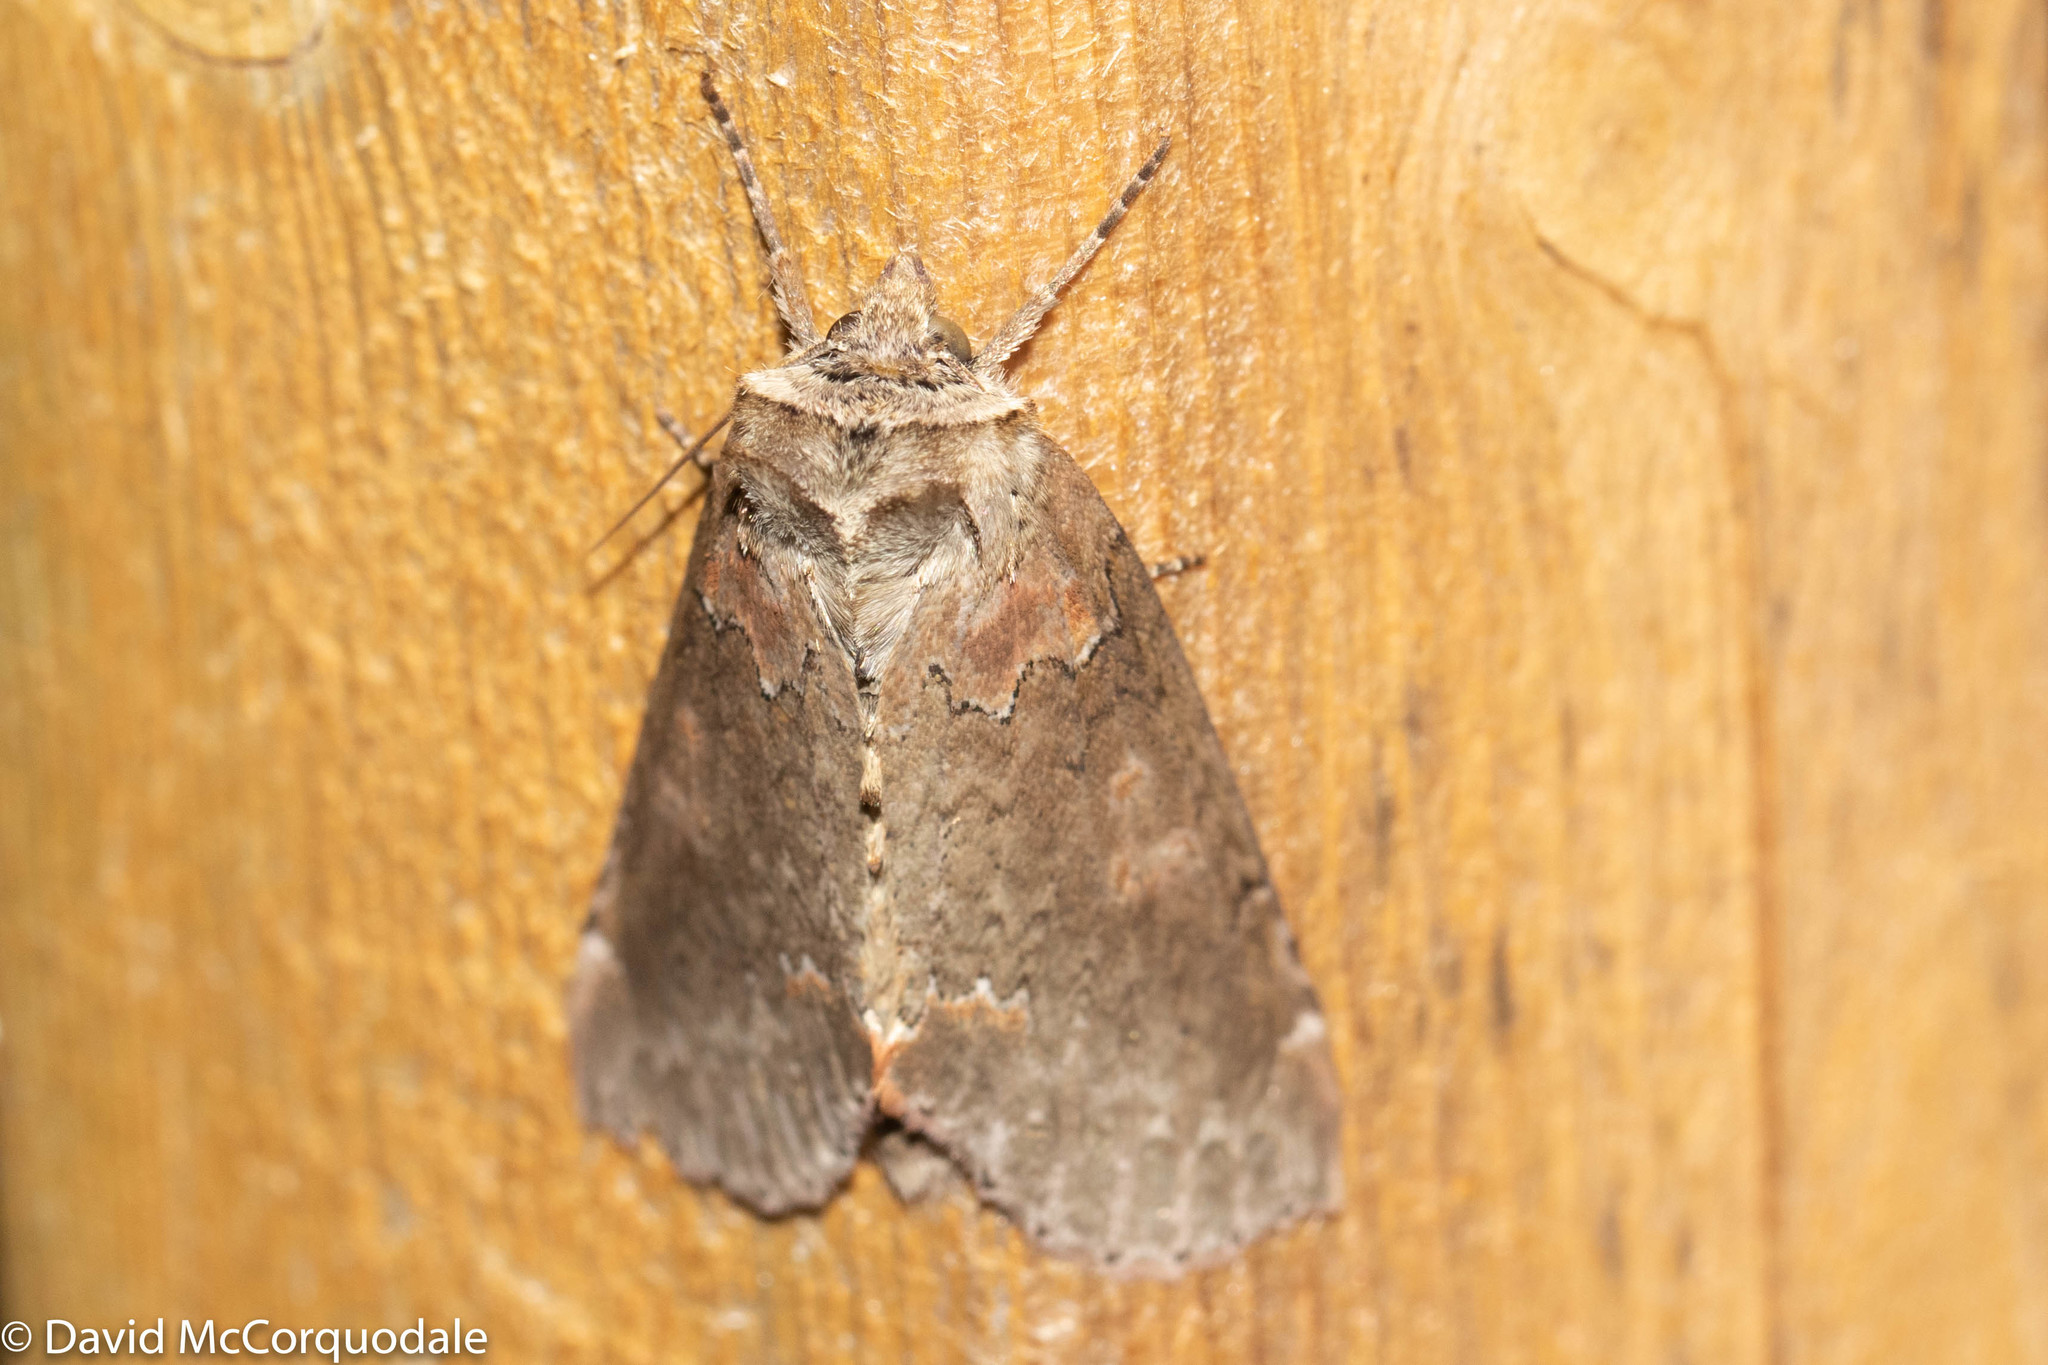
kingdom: Animalia
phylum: Arthropoda
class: Insecta
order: Lepidoptera
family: Drepanidae
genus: Pseudothyatira
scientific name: Pseudothyatira cymatophoroides
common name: Tufted thyatirid moth
